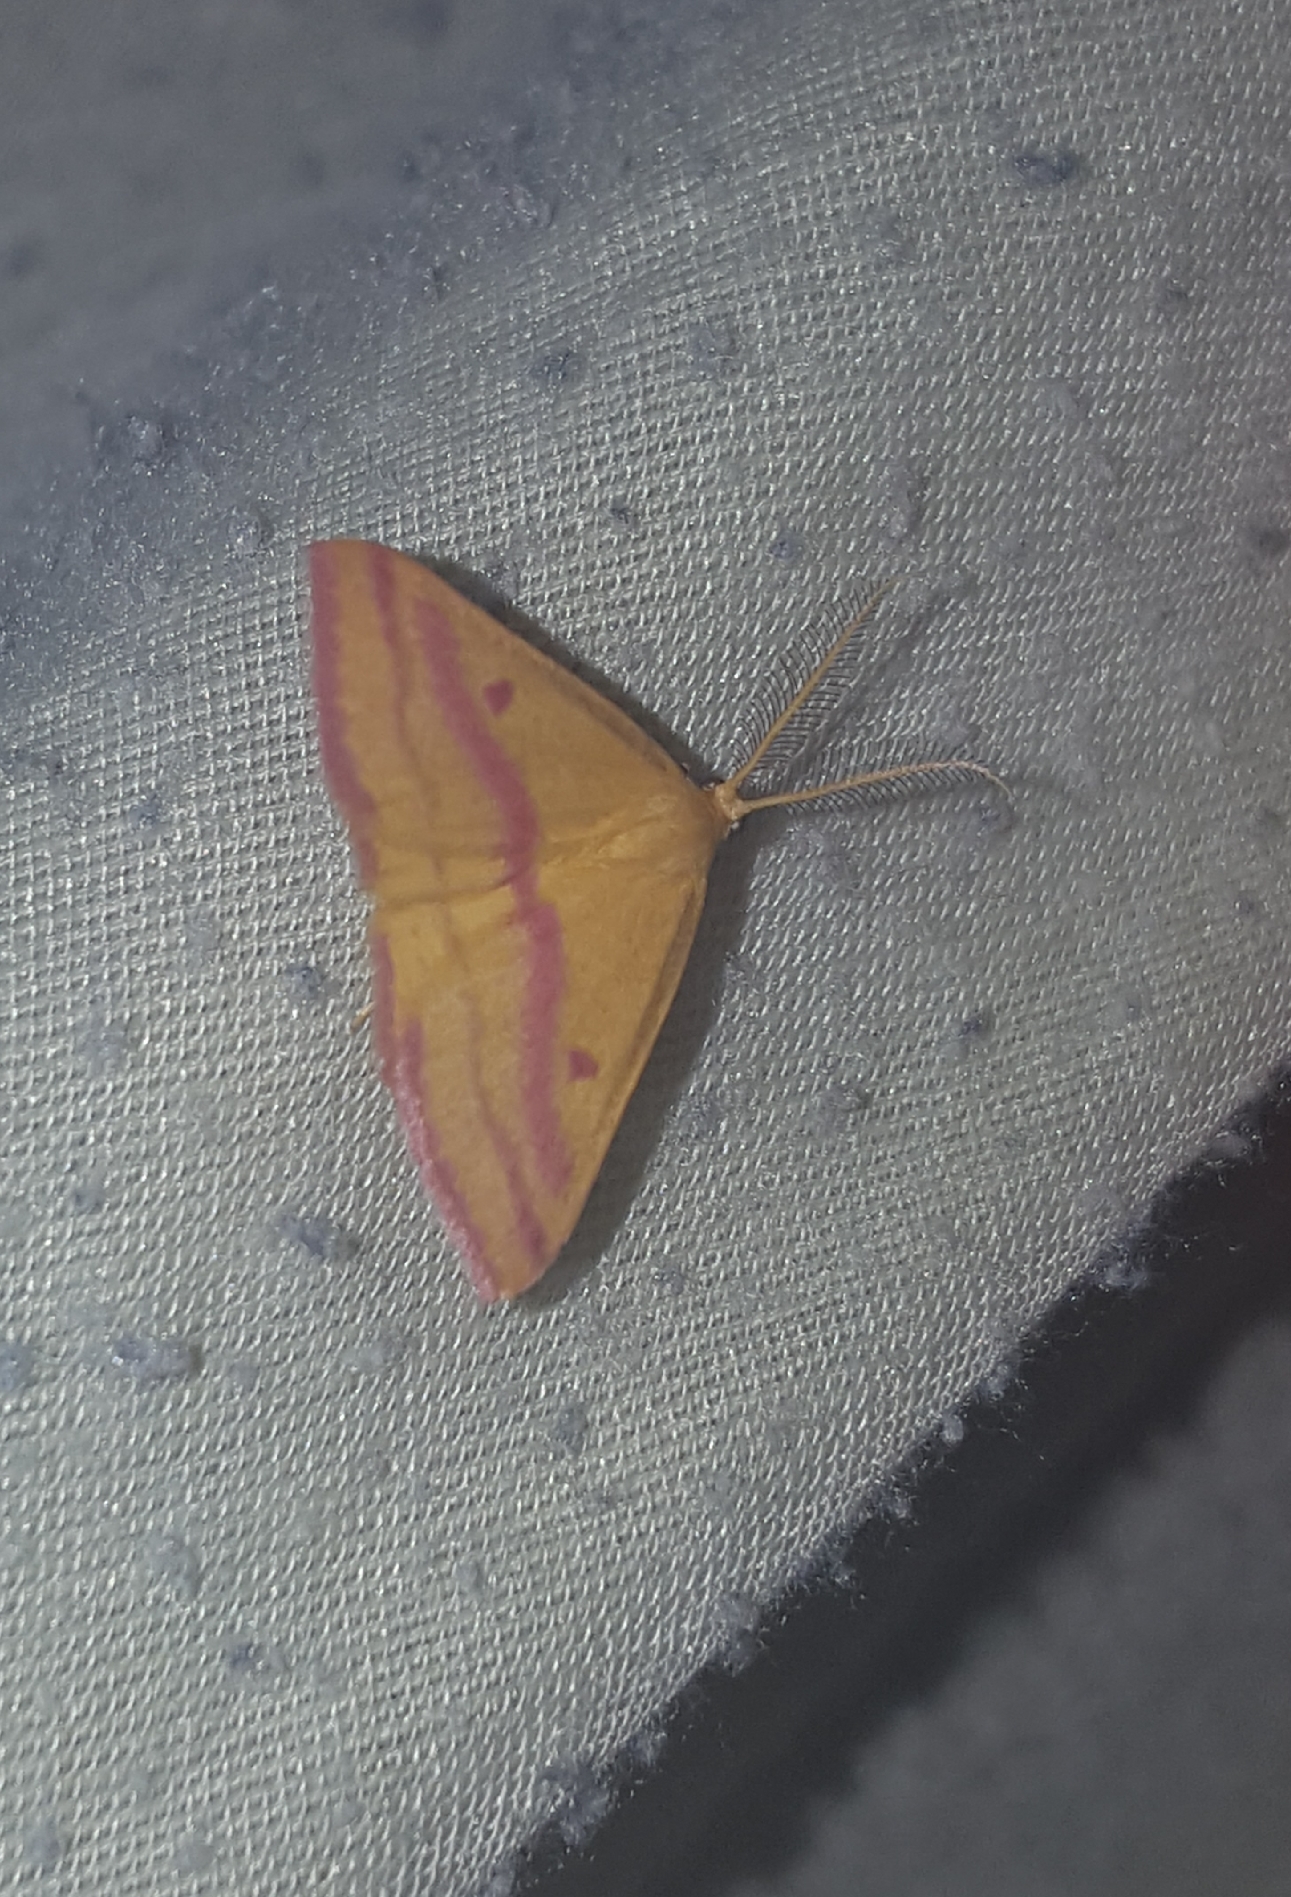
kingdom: Animalia
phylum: Arthropoda
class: Insecta
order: Lepidoptera
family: Geometridae
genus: Haematopis
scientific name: Haematopis grataria
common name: Chickweed geometer
